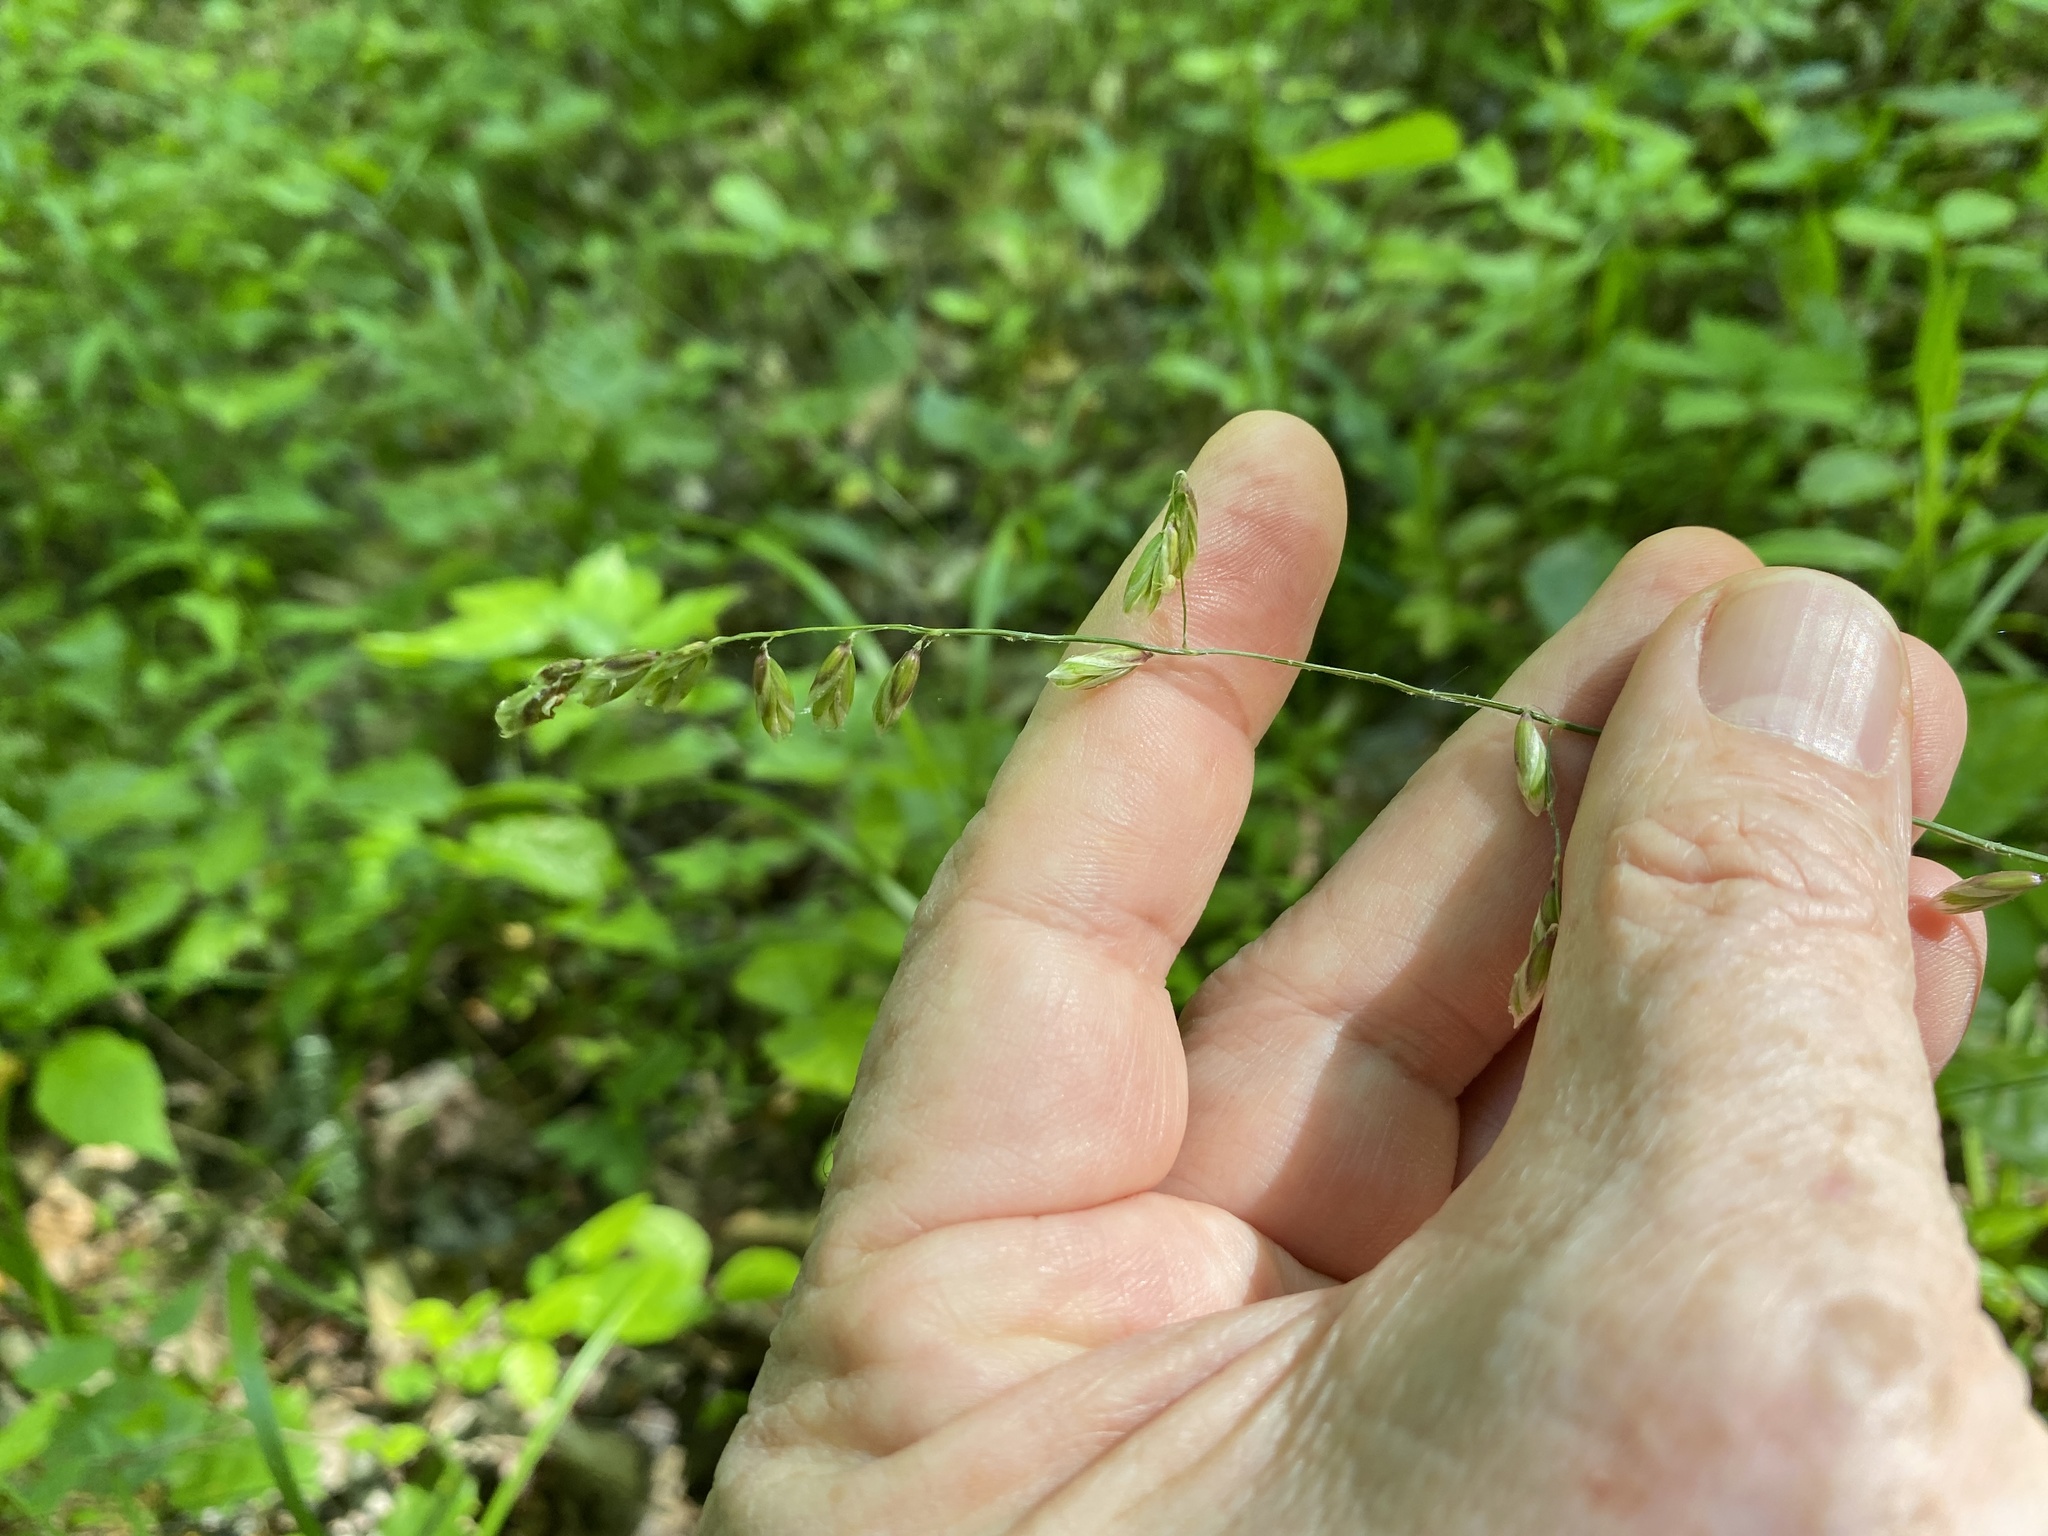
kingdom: Plantae
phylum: Tracheophyta
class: Liliopsida
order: Poales
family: Poaceae
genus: Melica
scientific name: Melica mutica
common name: Two-flower melic
